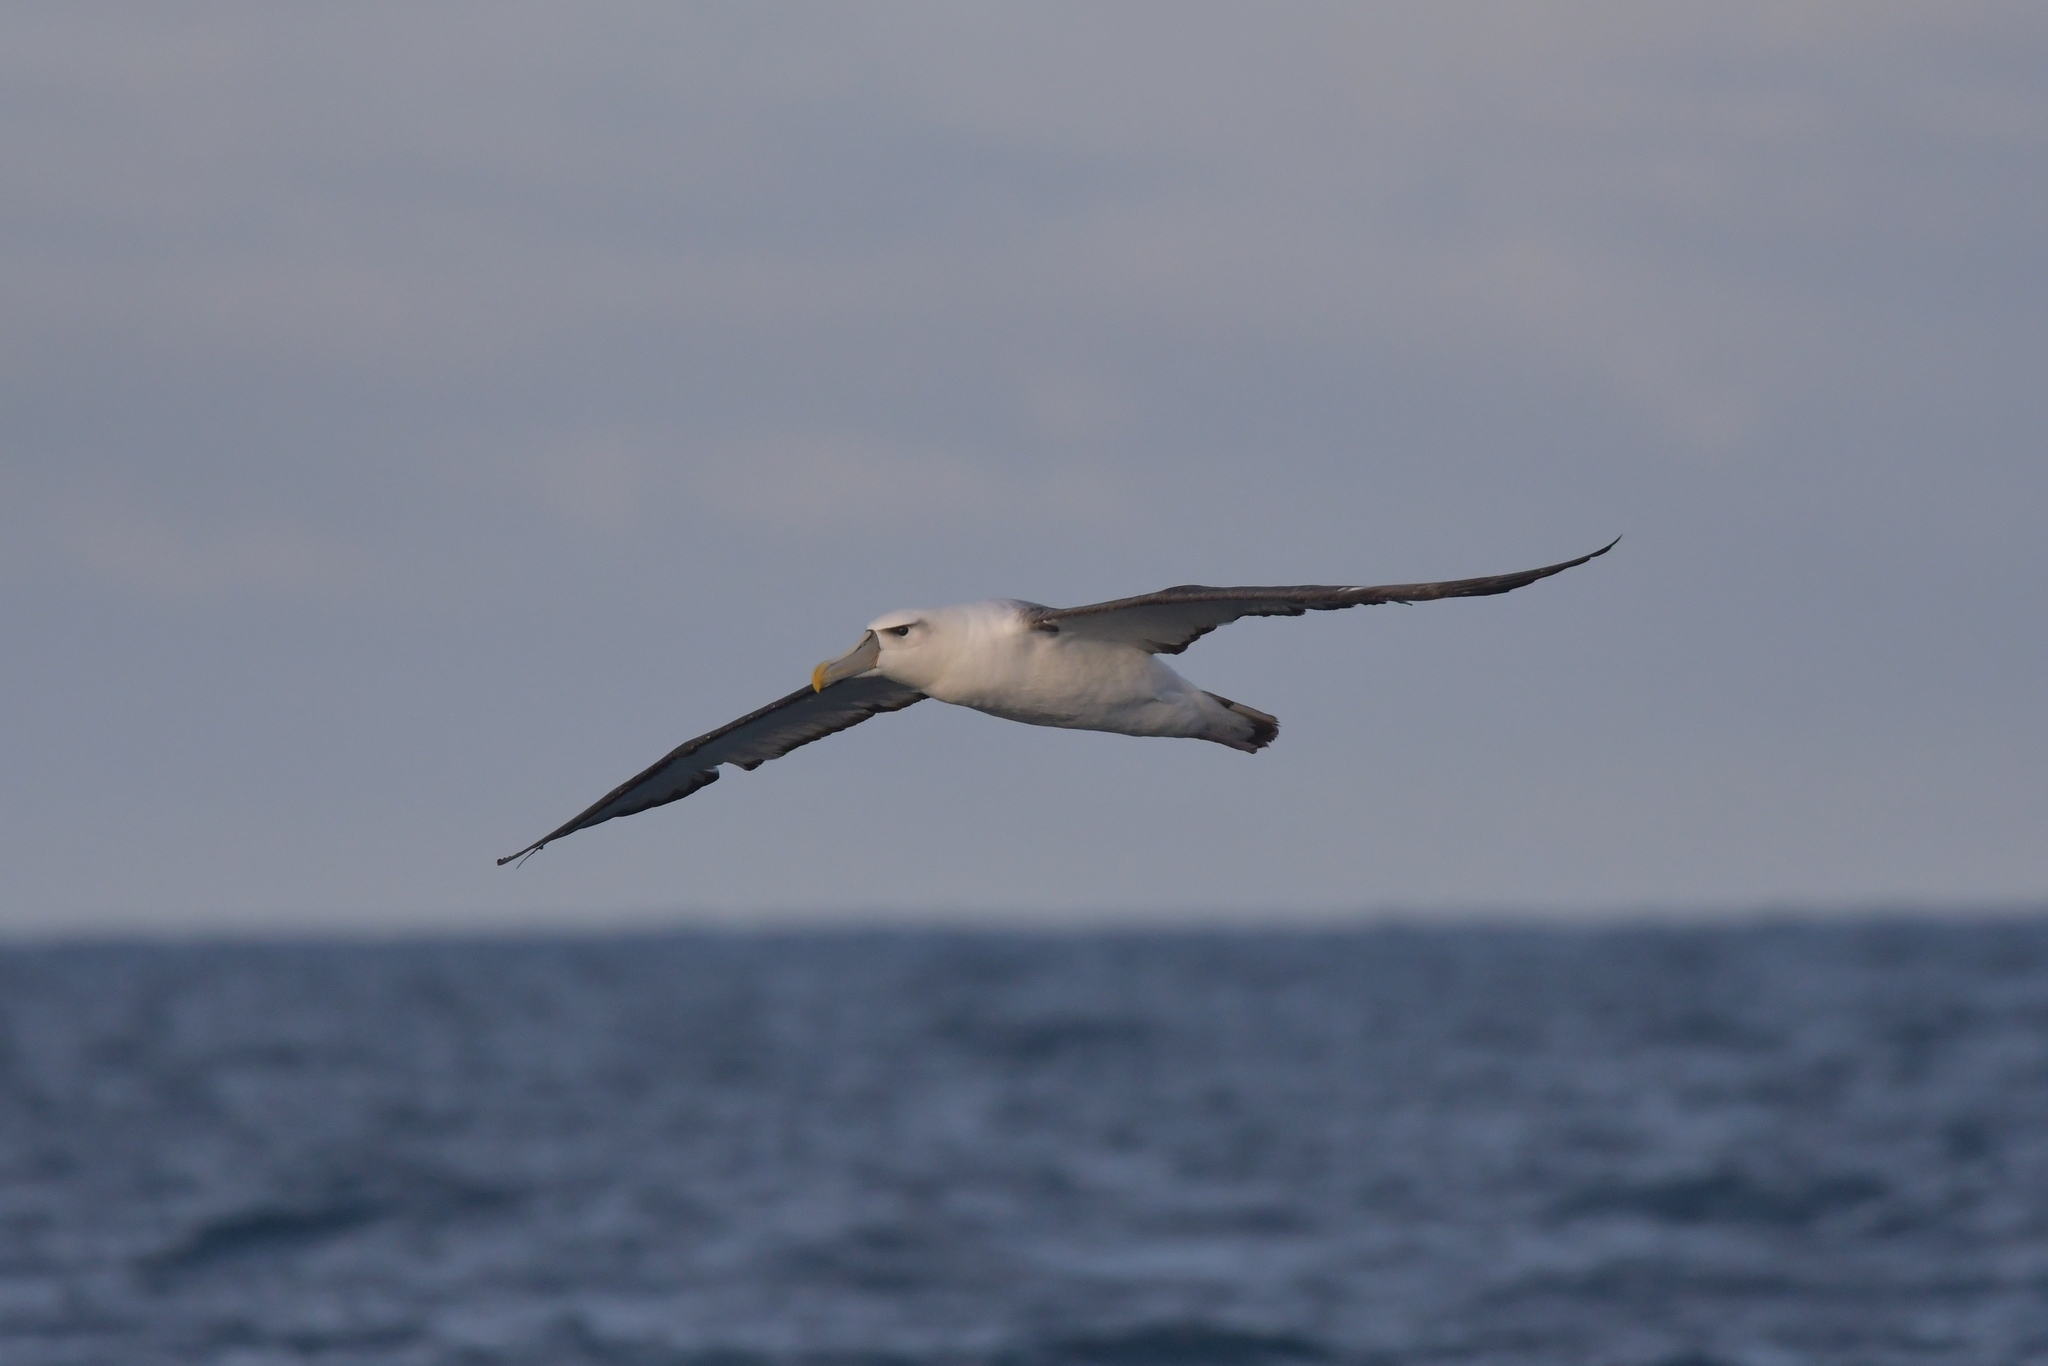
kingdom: Animalia
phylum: Chordata
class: Aves
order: Procellariiformes
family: Diomedeidae
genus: Thalassarche
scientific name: Thalassarche cauta
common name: Shy albatross
